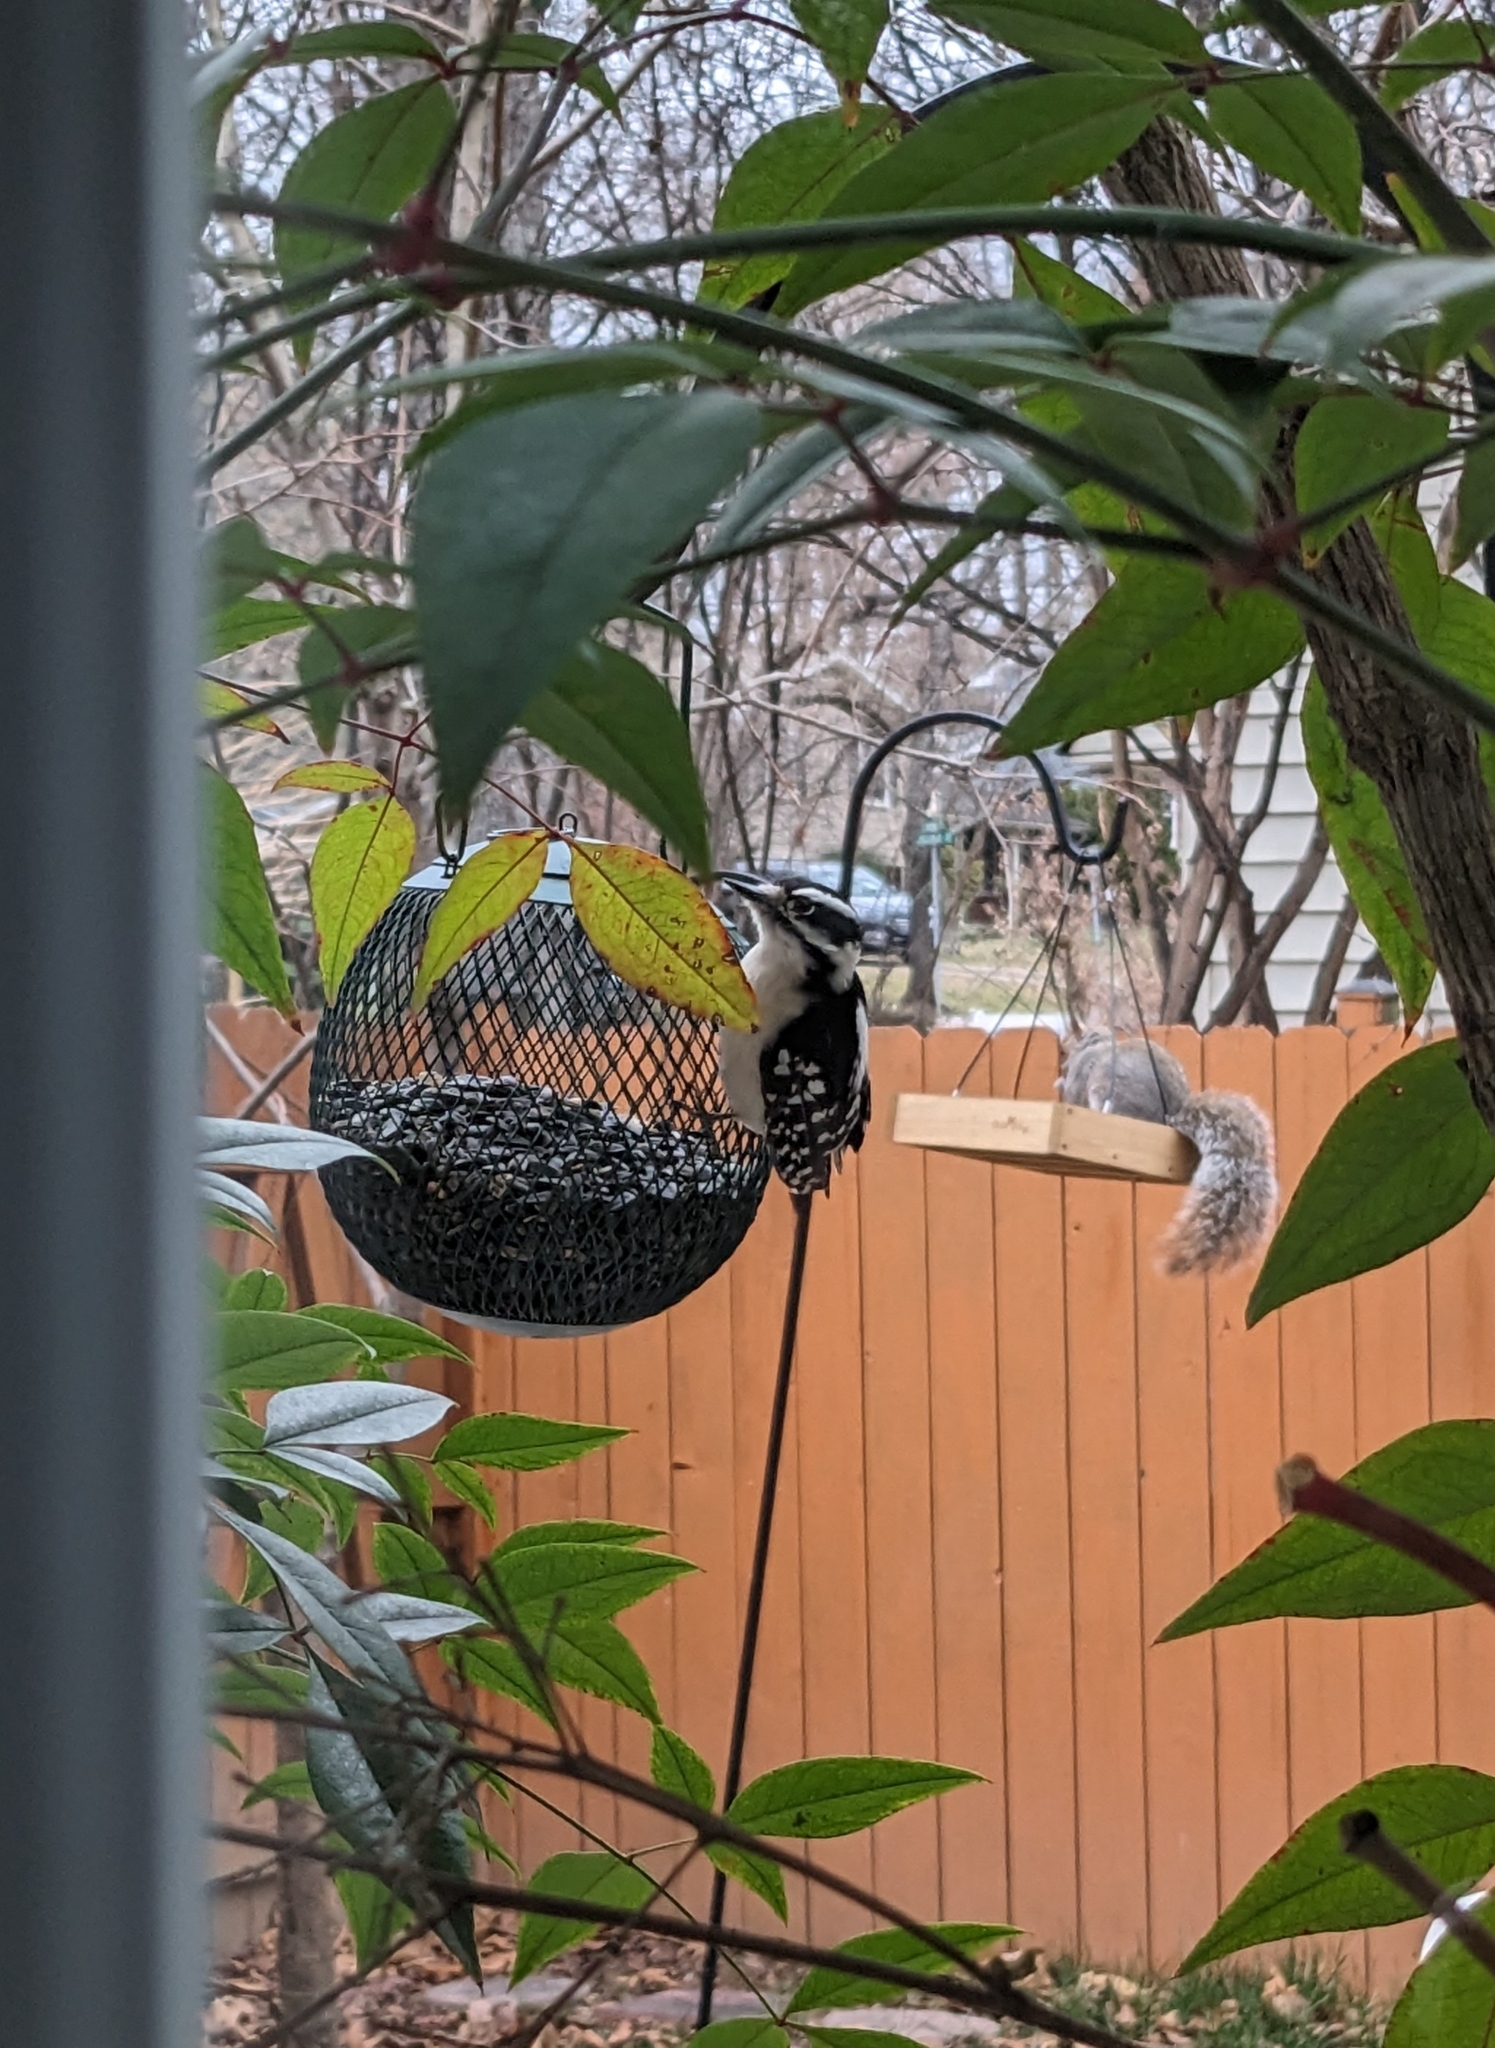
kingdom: Animalia
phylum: Chordata
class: Aves
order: Piciformes
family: Picidae
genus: Dryobates
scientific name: Dryobates pubescens
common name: Downy woodpecker
